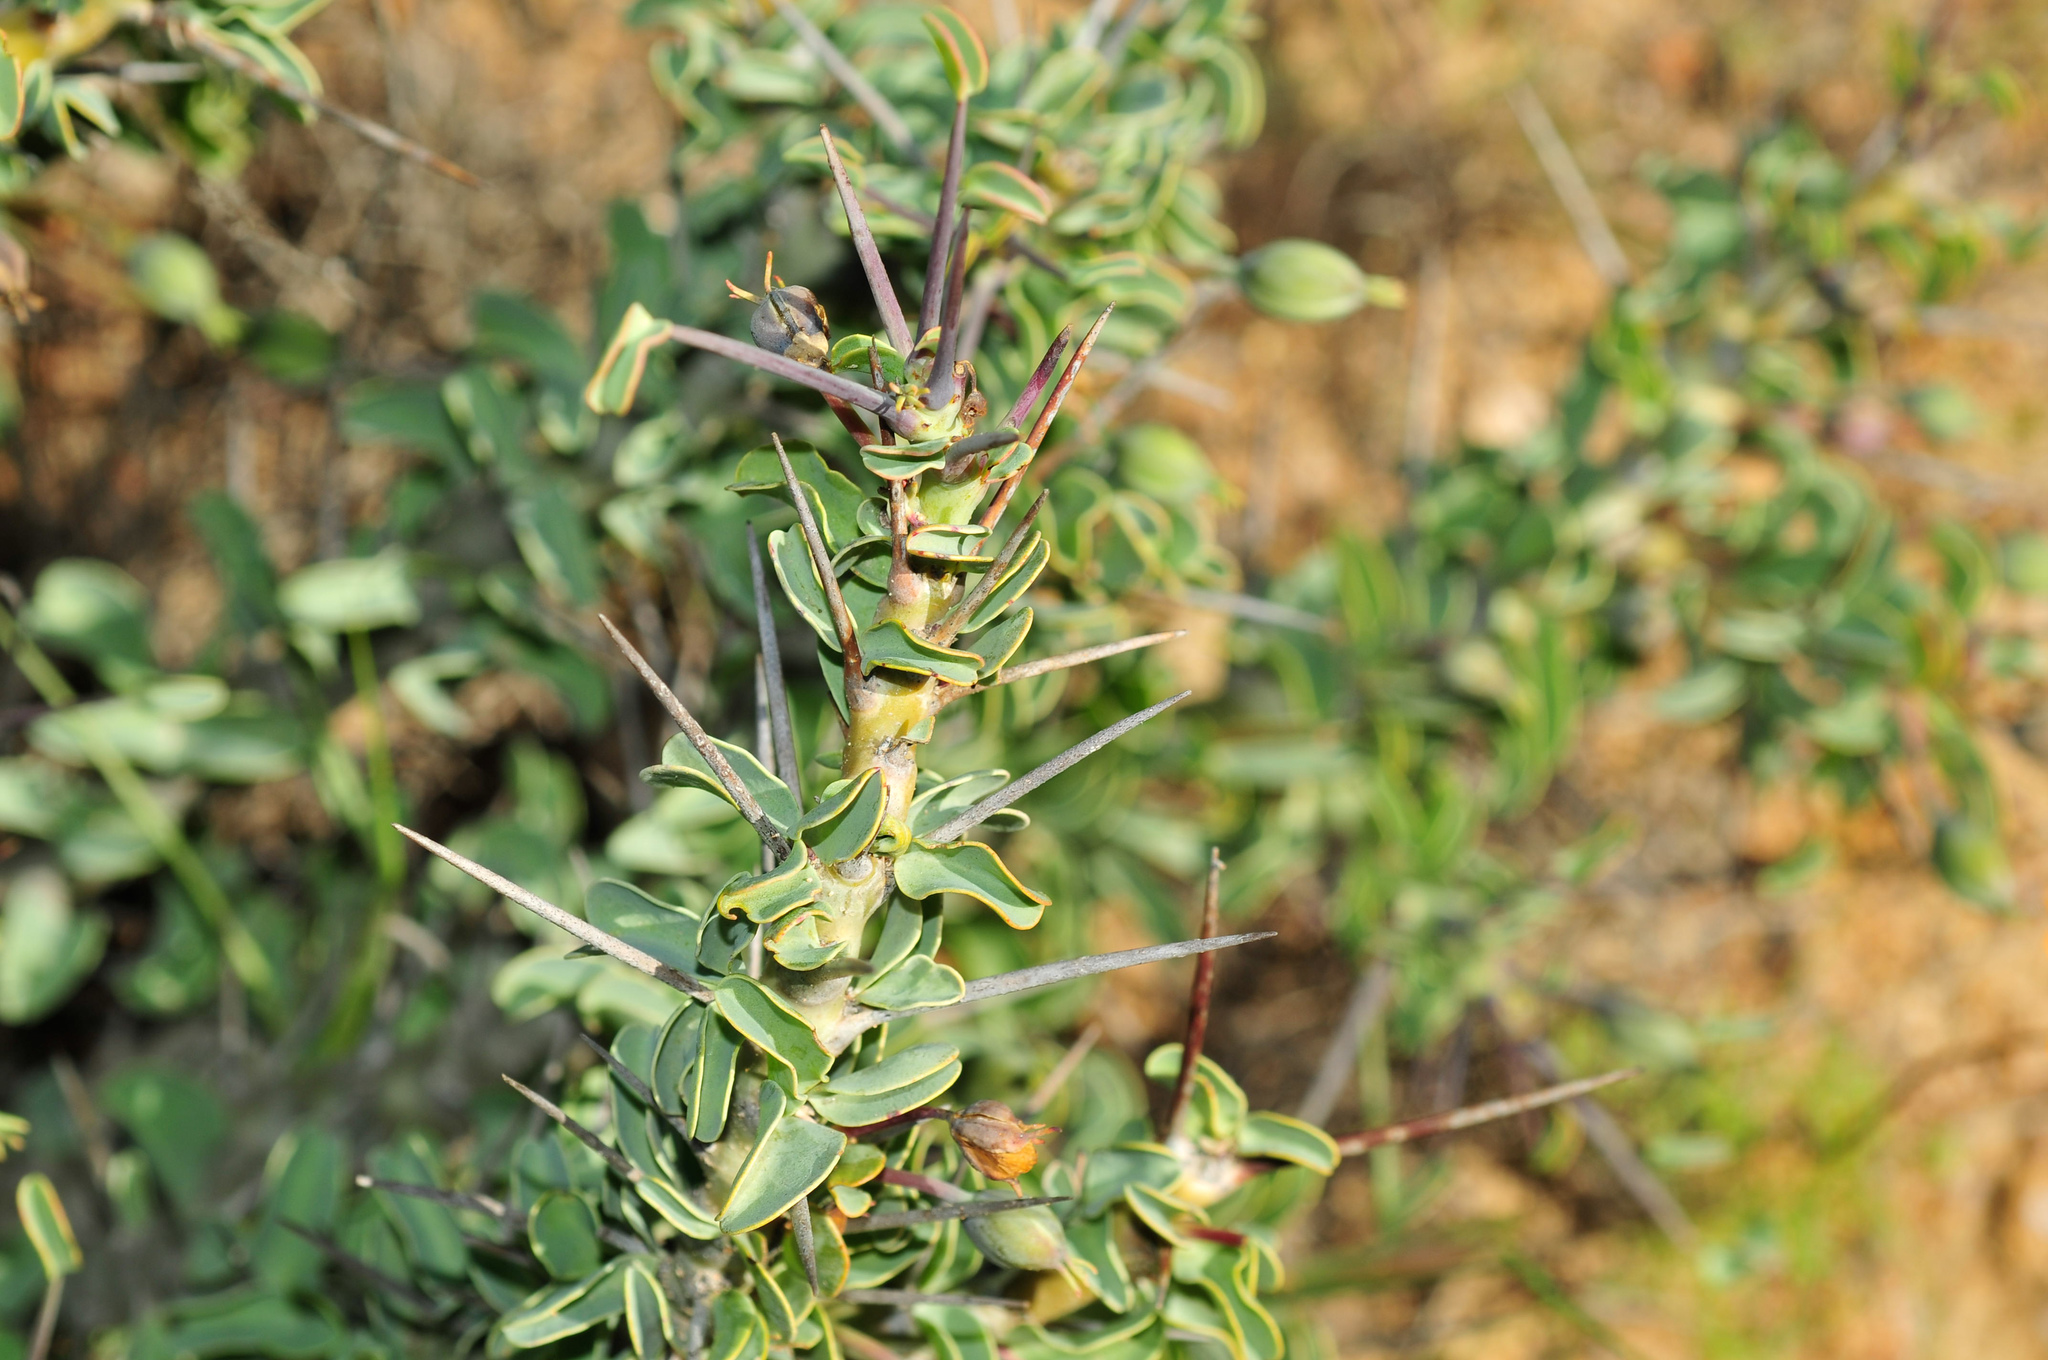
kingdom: Plantae
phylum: Tracheophyta
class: Magnoliopsida
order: Geraniales
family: Geraniaceae
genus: Monsonia
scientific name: Monsonia spinosa
